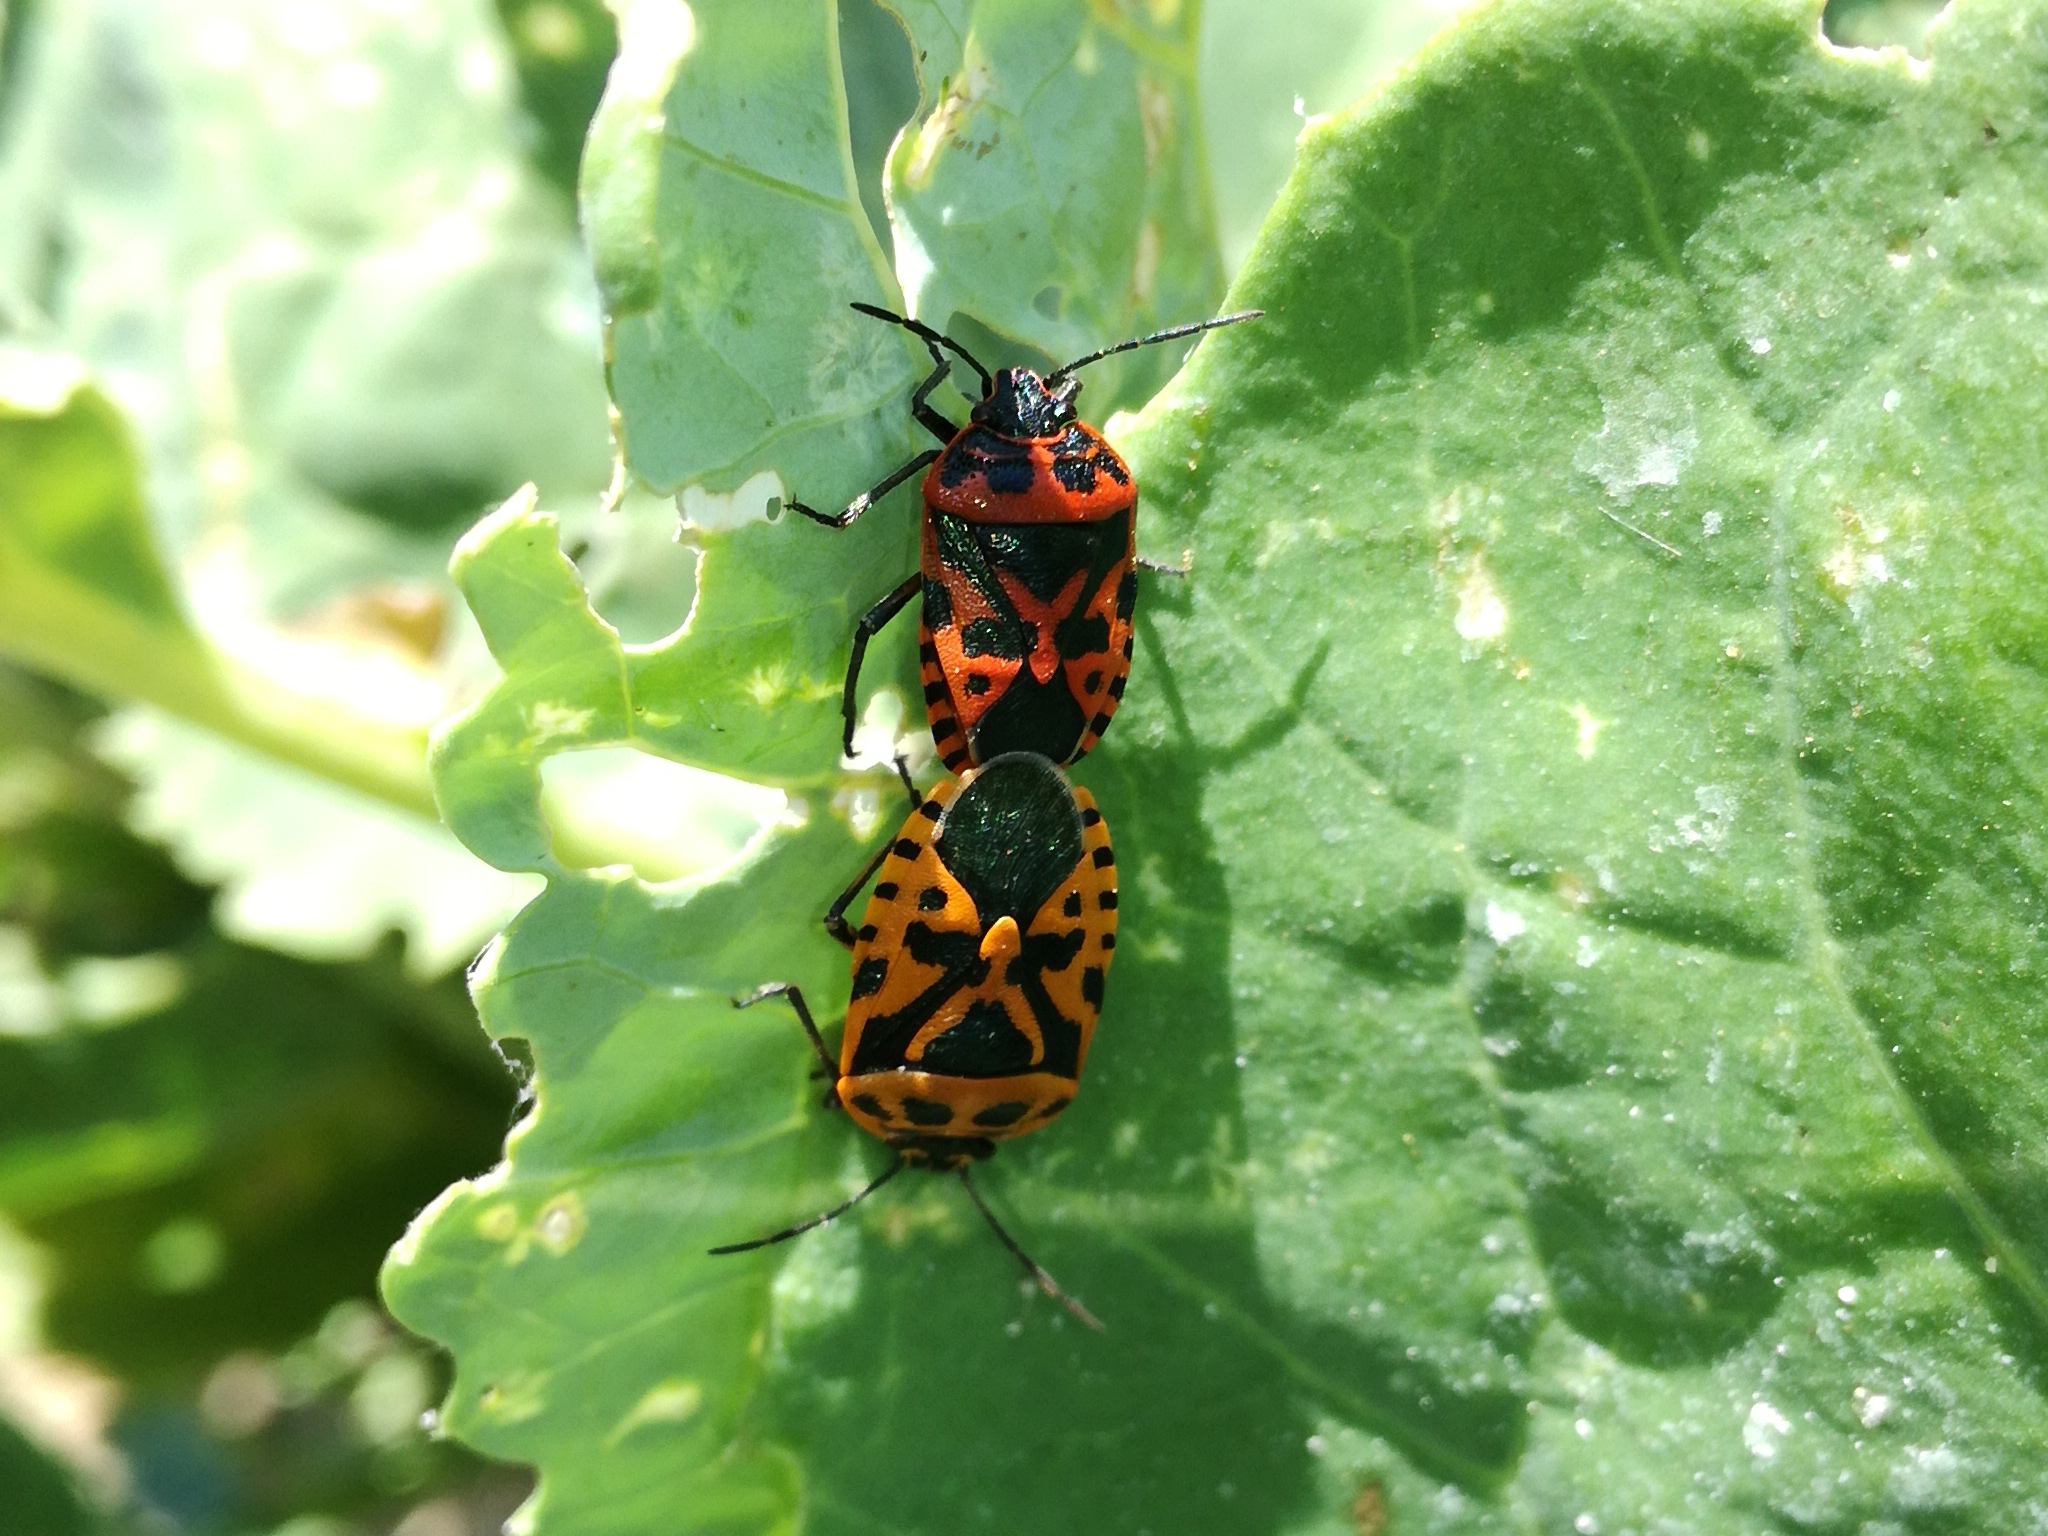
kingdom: Animalia
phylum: Arthropoda
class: Insecta
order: Hemiptera
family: Pentatomidae
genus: Eurydema
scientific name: Eurydema ventralis
